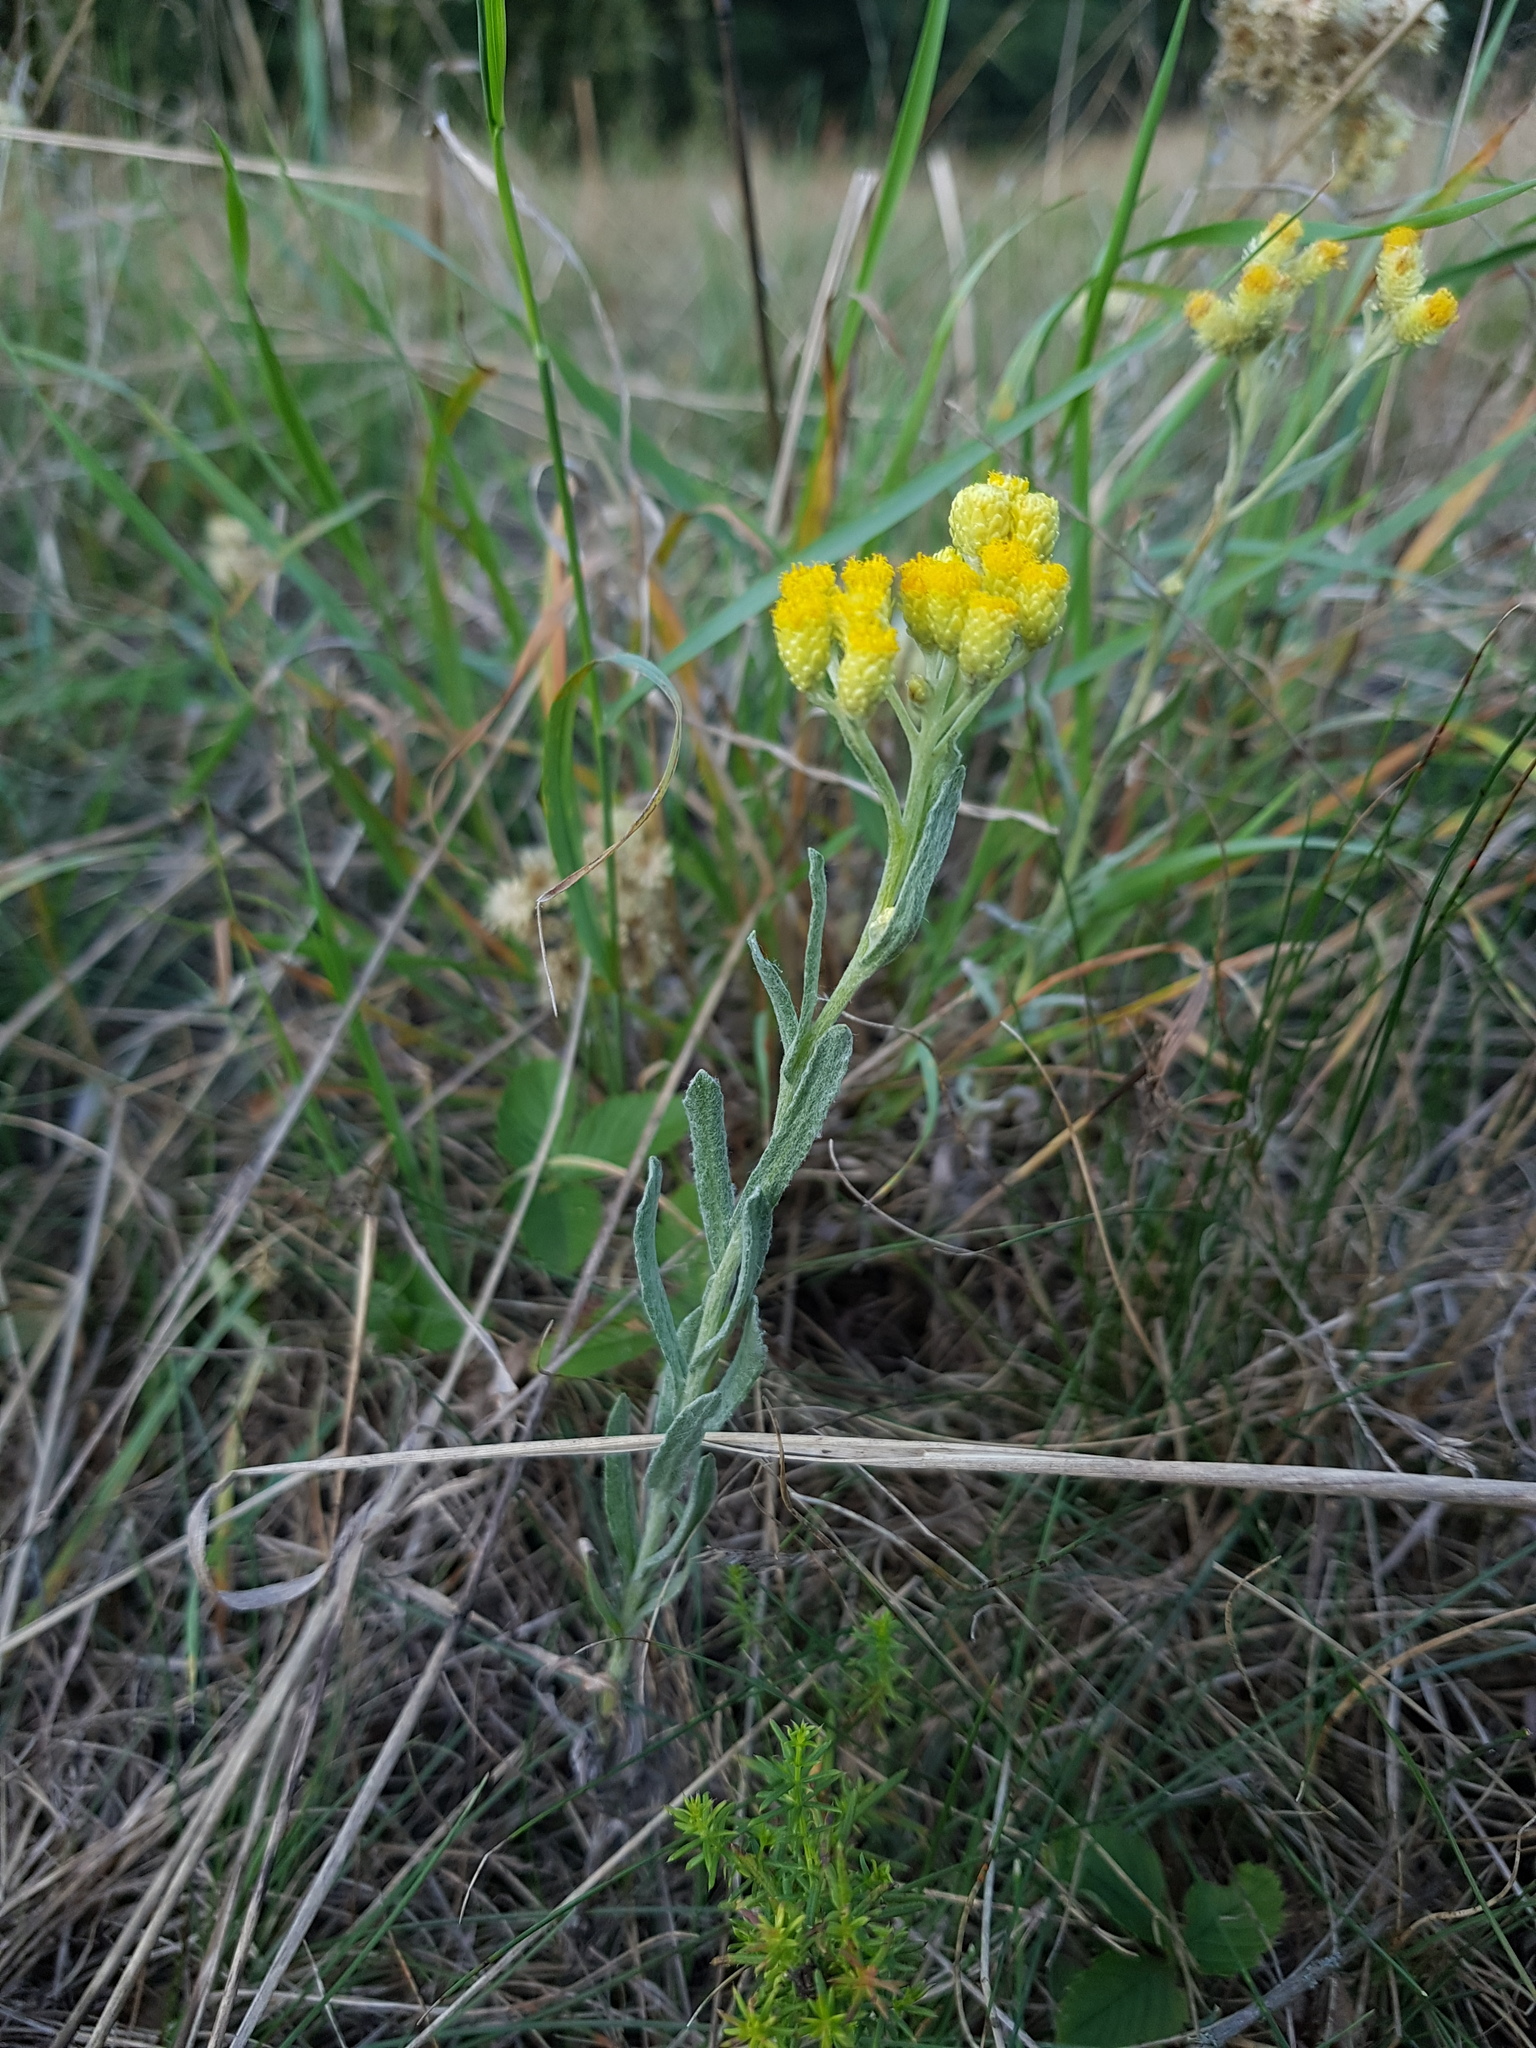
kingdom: Plantae
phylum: Tracheophyta
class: Magnoliopsida
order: Asterales
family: Asteraceae
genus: Helichrysum
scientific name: Helichrysum arenarium
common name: Strawflower
